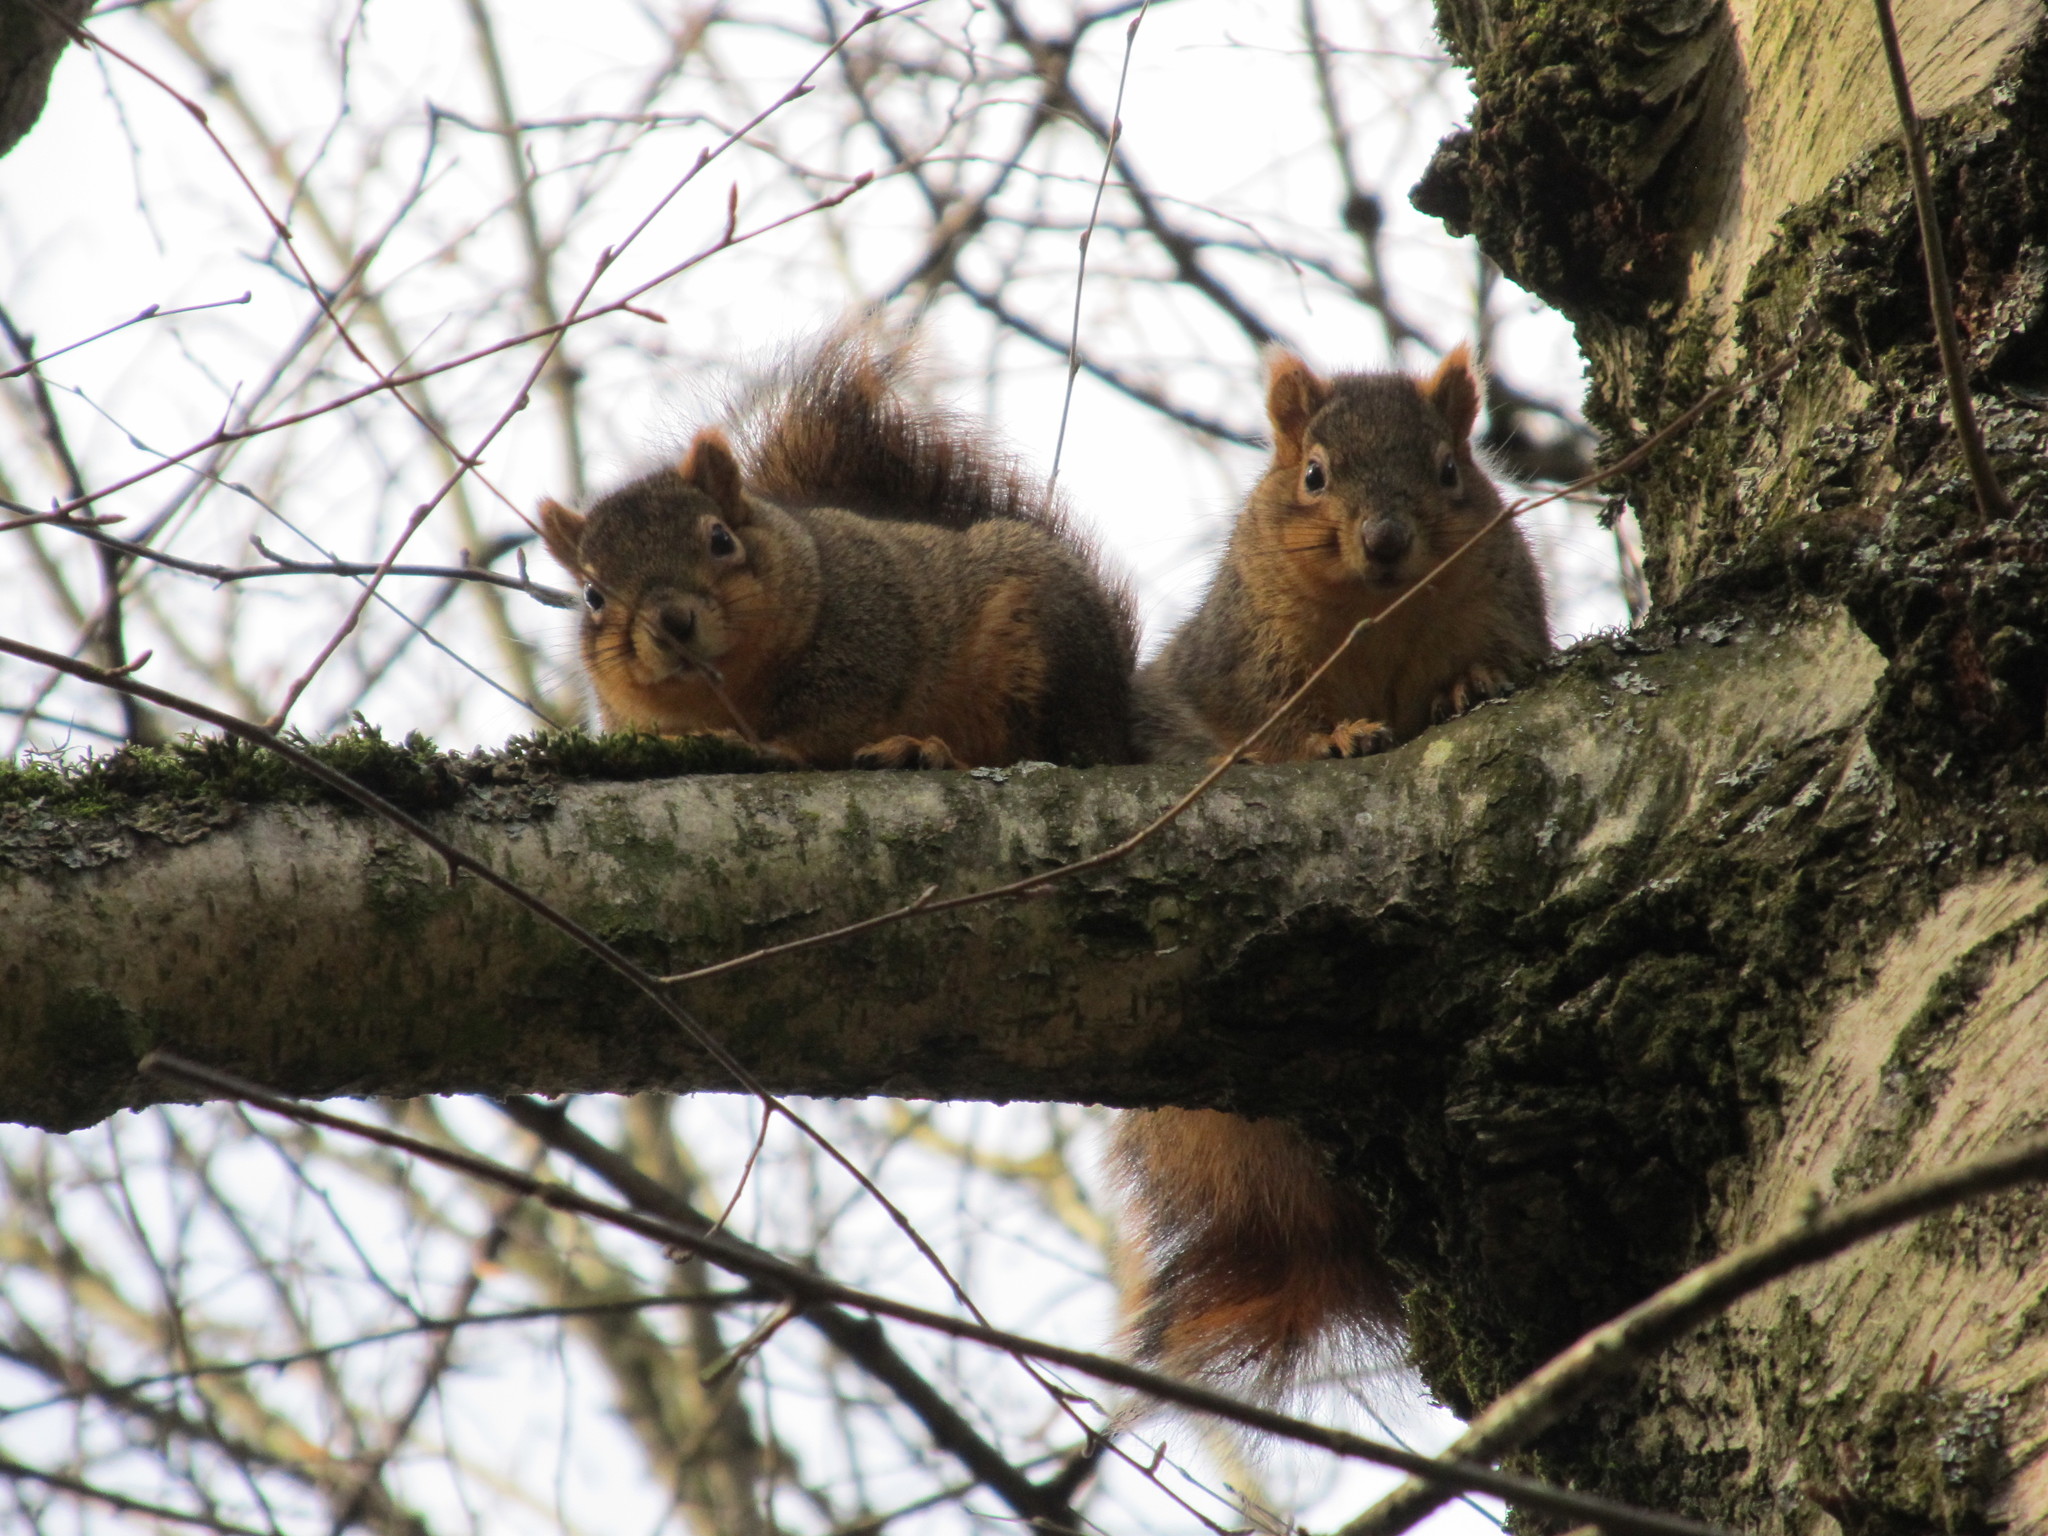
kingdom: Animalia
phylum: Chordata
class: Mammalia
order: Rodentia
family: Sciuridae
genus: Sciurus
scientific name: Sciurus niger
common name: Fox squirrel
